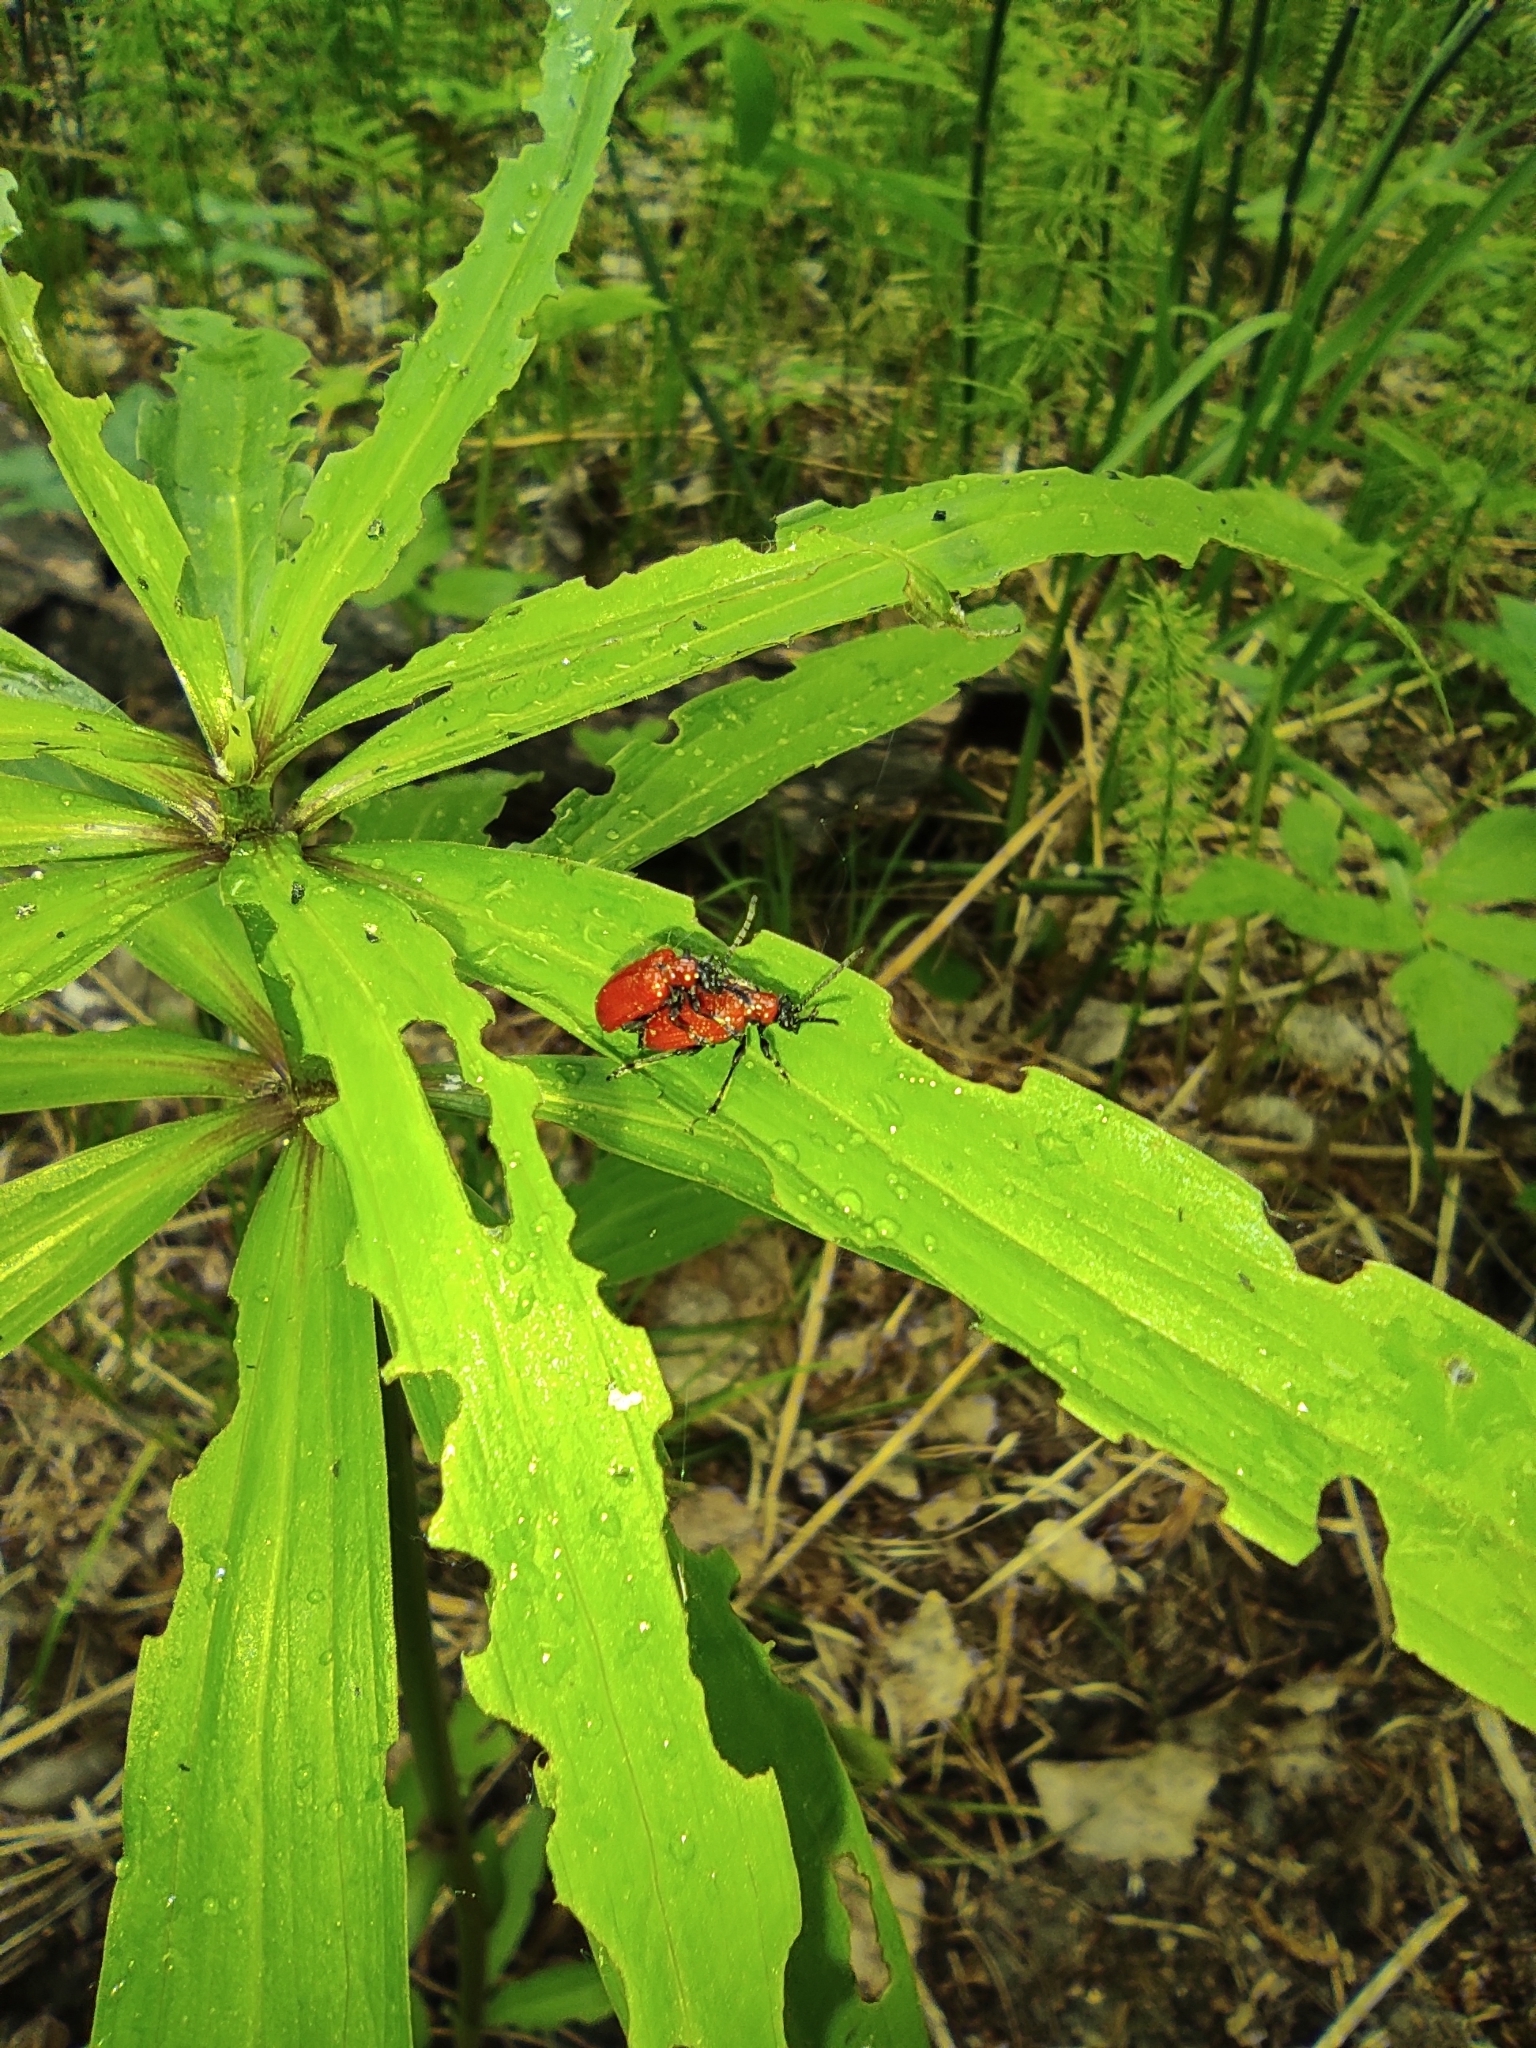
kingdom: Animalia
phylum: Arthropoda
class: Insecta
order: Coleoptera
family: Chrysomelidae
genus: Lilioceris
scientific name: Lilioceris lilii
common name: Lily beetle
